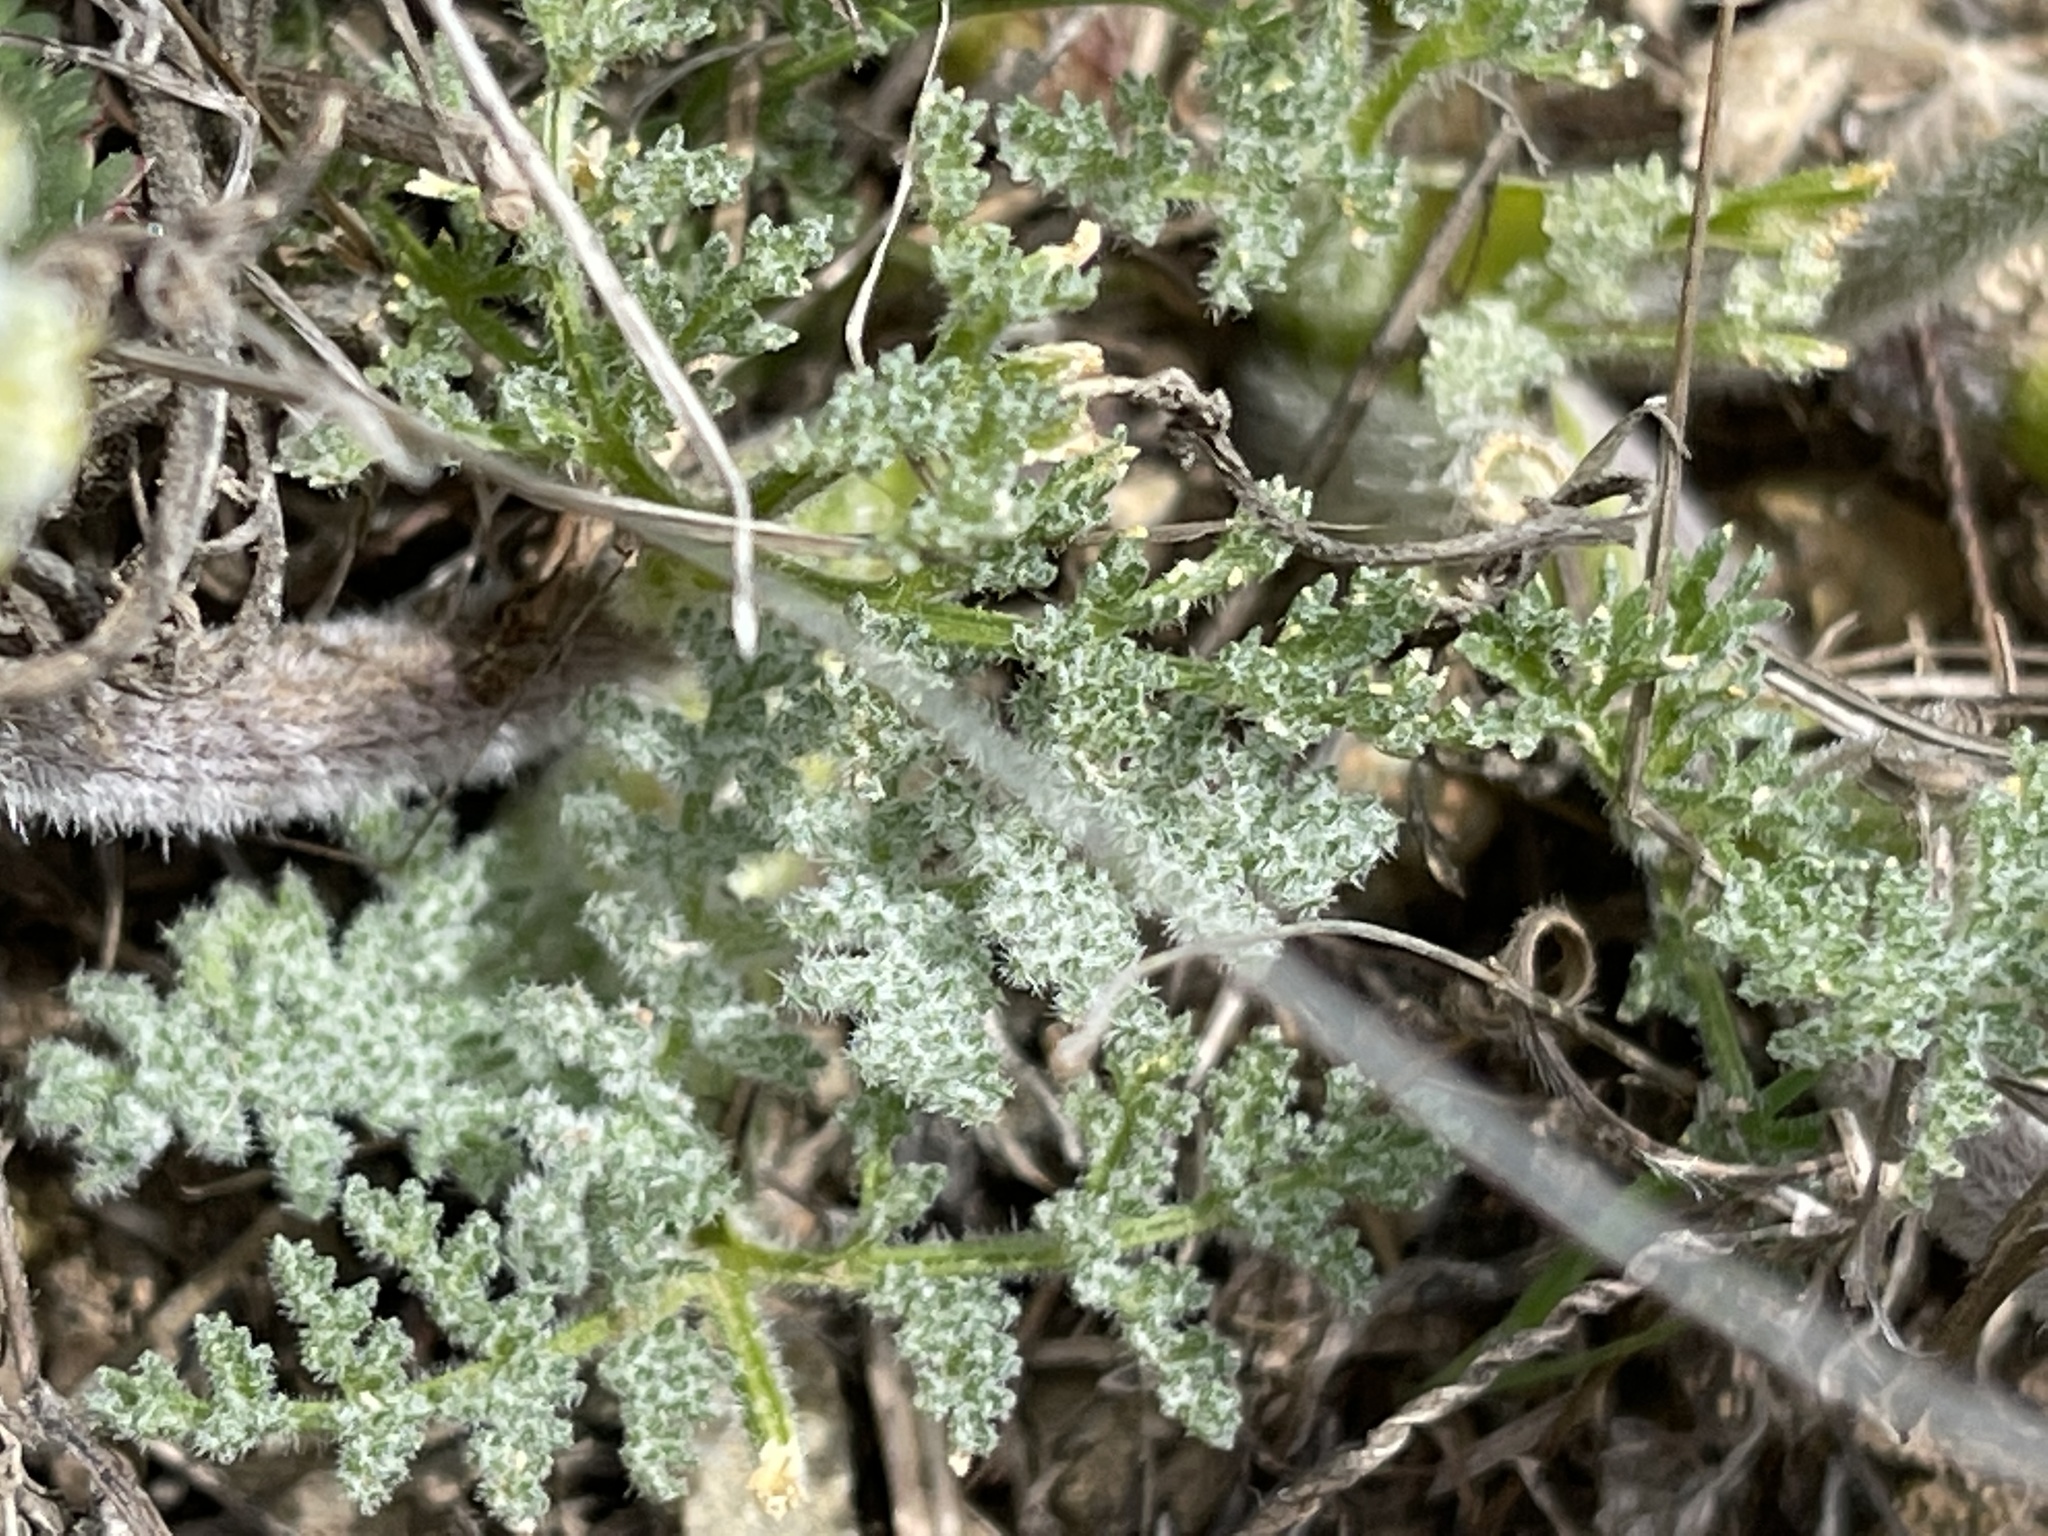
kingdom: Plantae
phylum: Tracheophyta
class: Magnoliopsida
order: Apiales
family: Apiaceae
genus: Lomatium
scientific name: Lomatium dasycarpum
